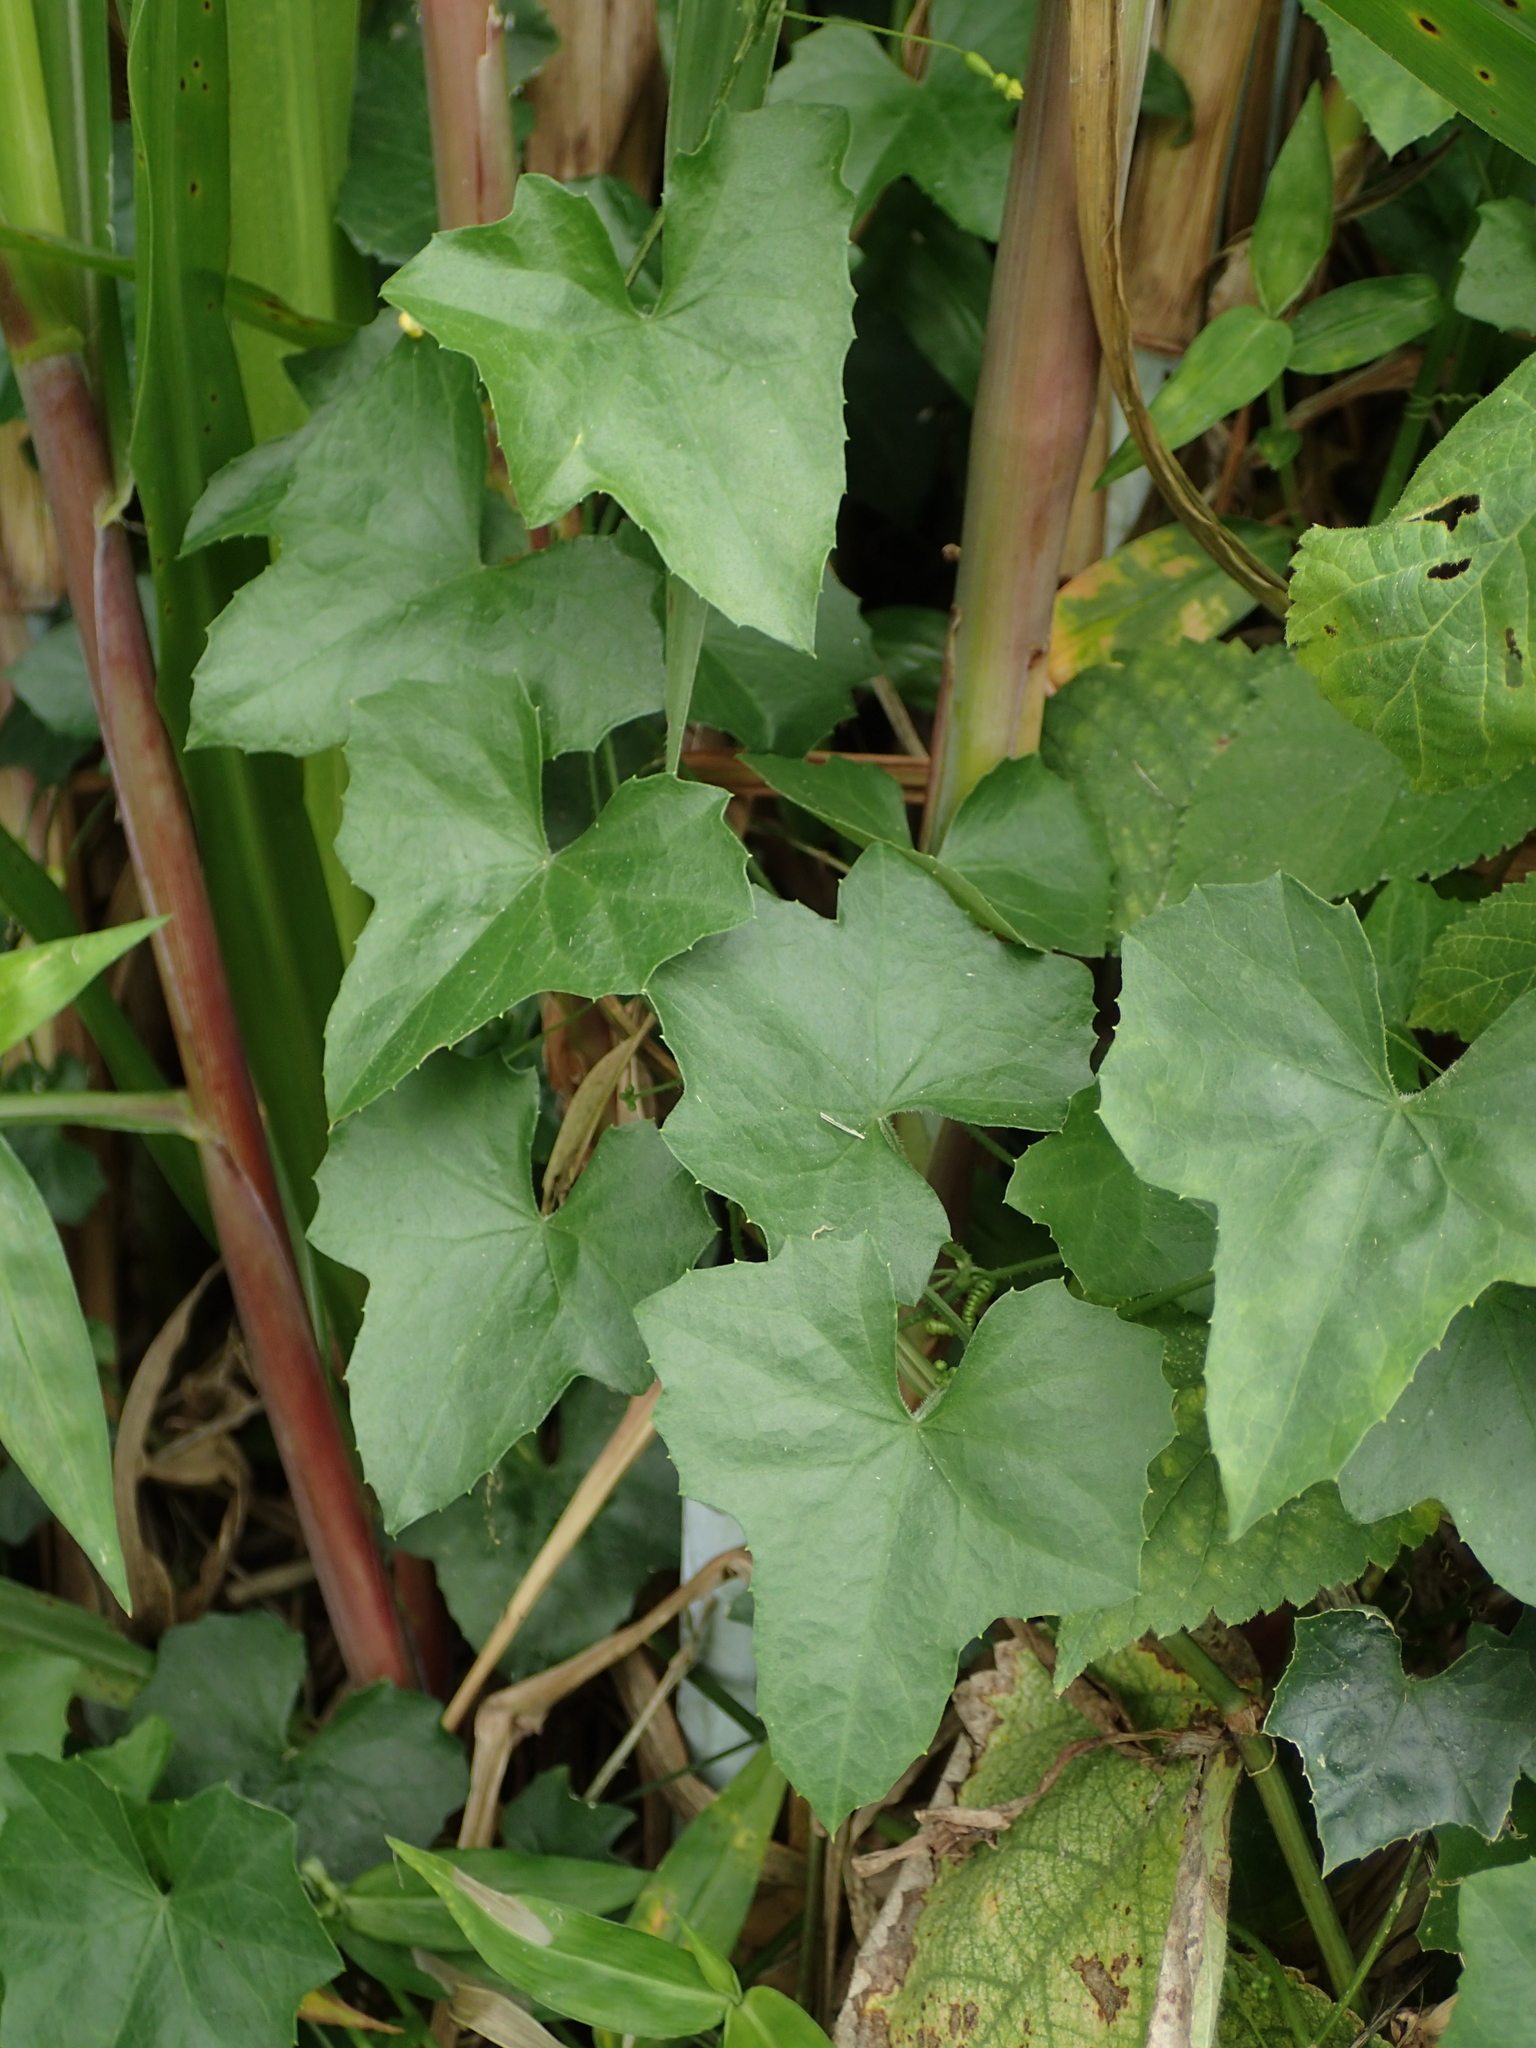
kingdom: Plantae
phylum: Tracheophyta
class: Magnoliopsida
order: Cucurbitales
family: Cucurbitaceae
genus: Melothria
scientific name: Melothria pendula
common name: Creeping-cucumber
